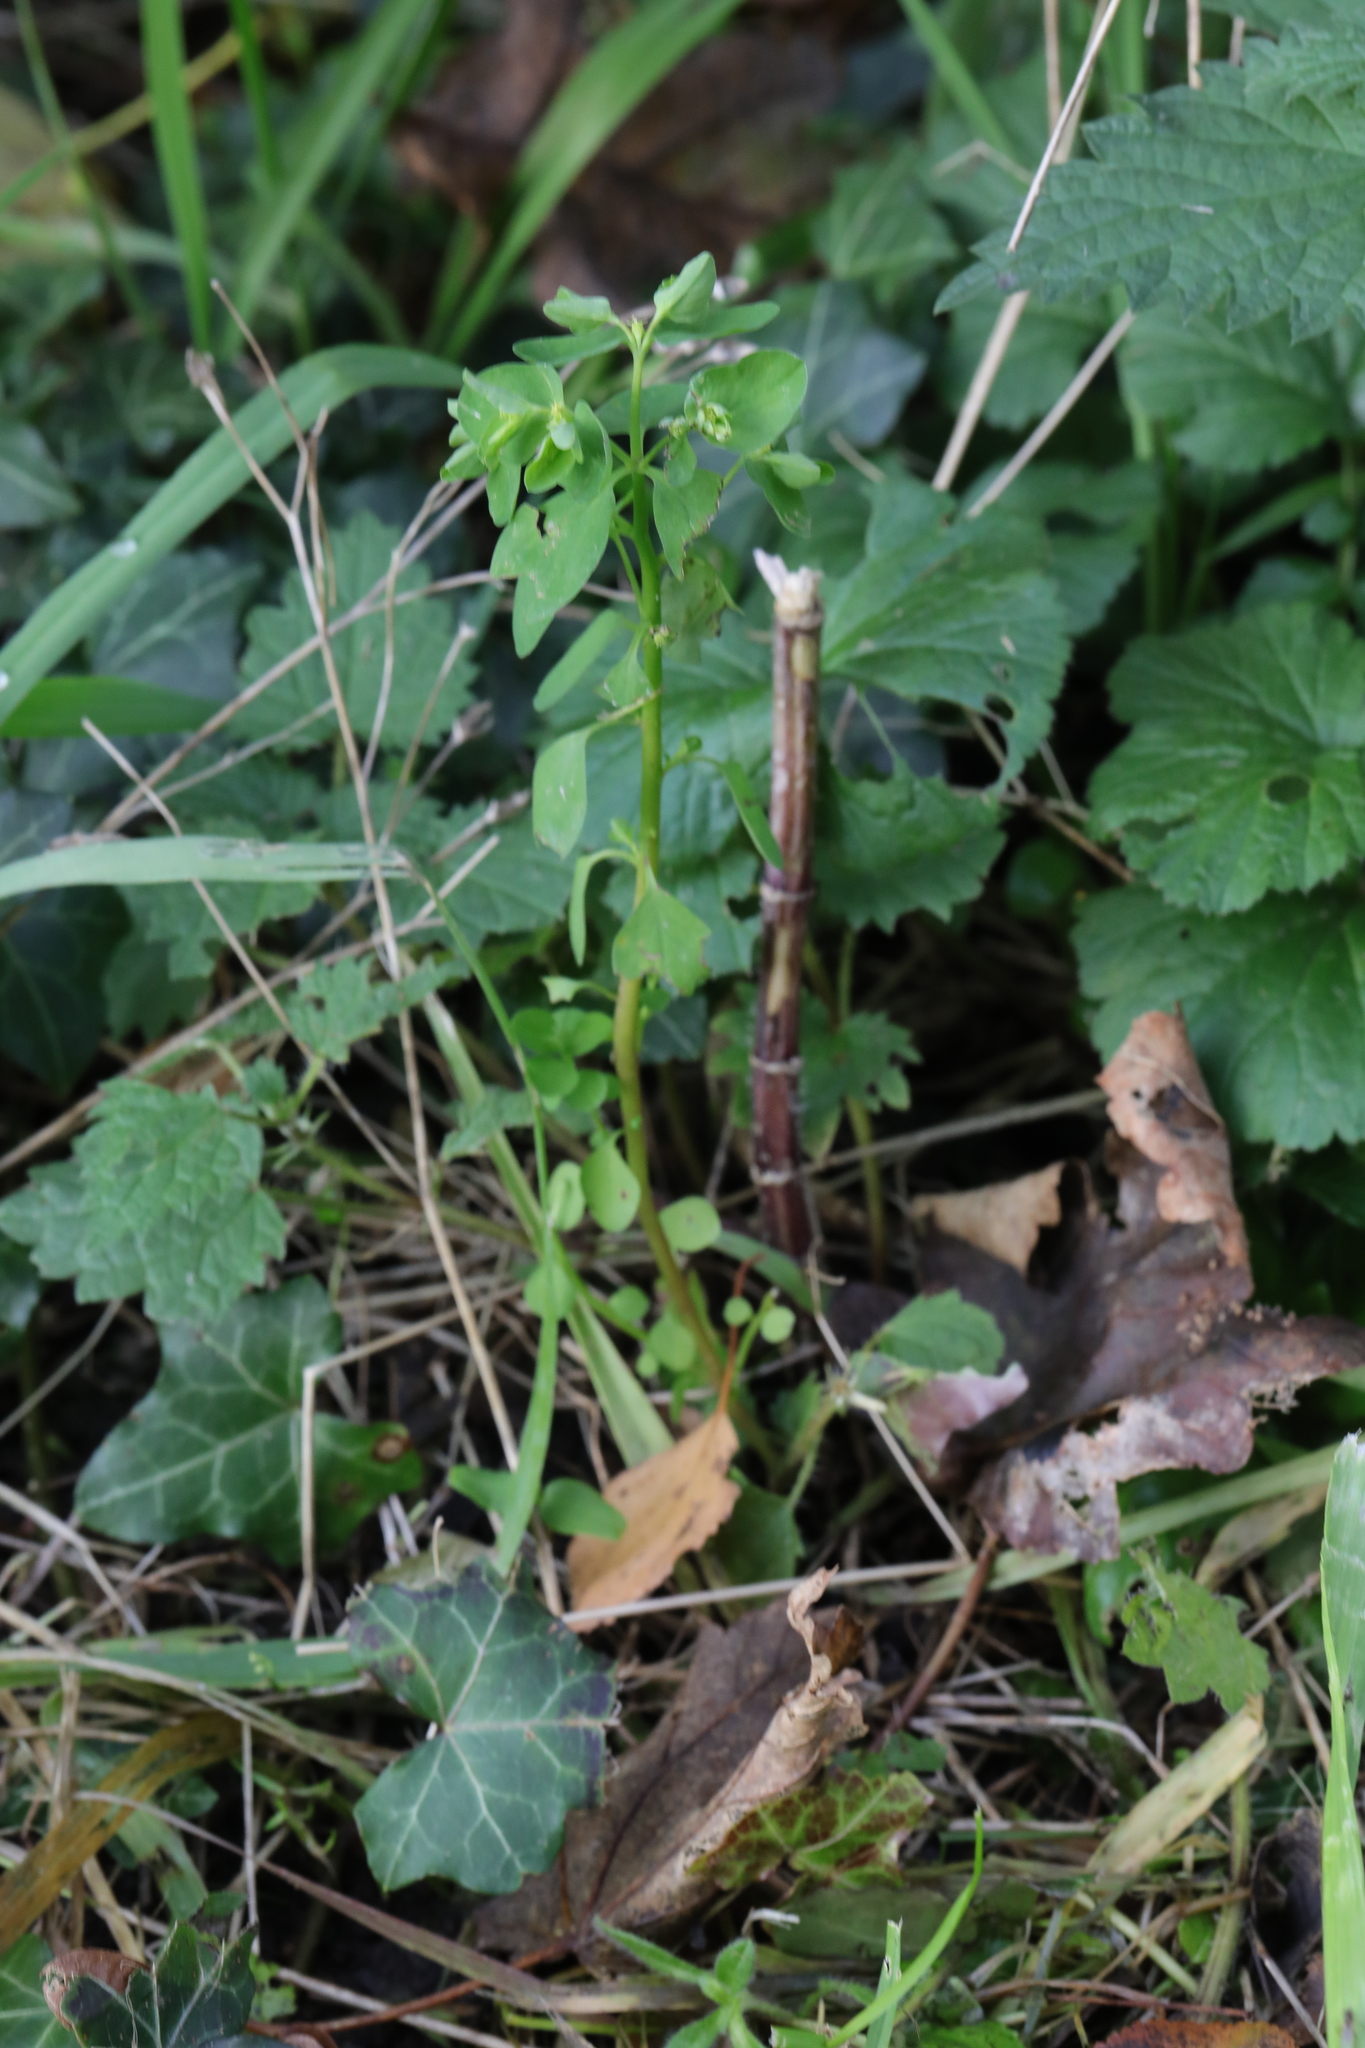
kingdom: Plantae
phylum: Tracheophyta
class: Magnoliopsida
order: Malpighiales
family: Euphorbiaceae
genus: Euphorbia
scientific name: Euphorbia peplus
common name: Petty spurge
